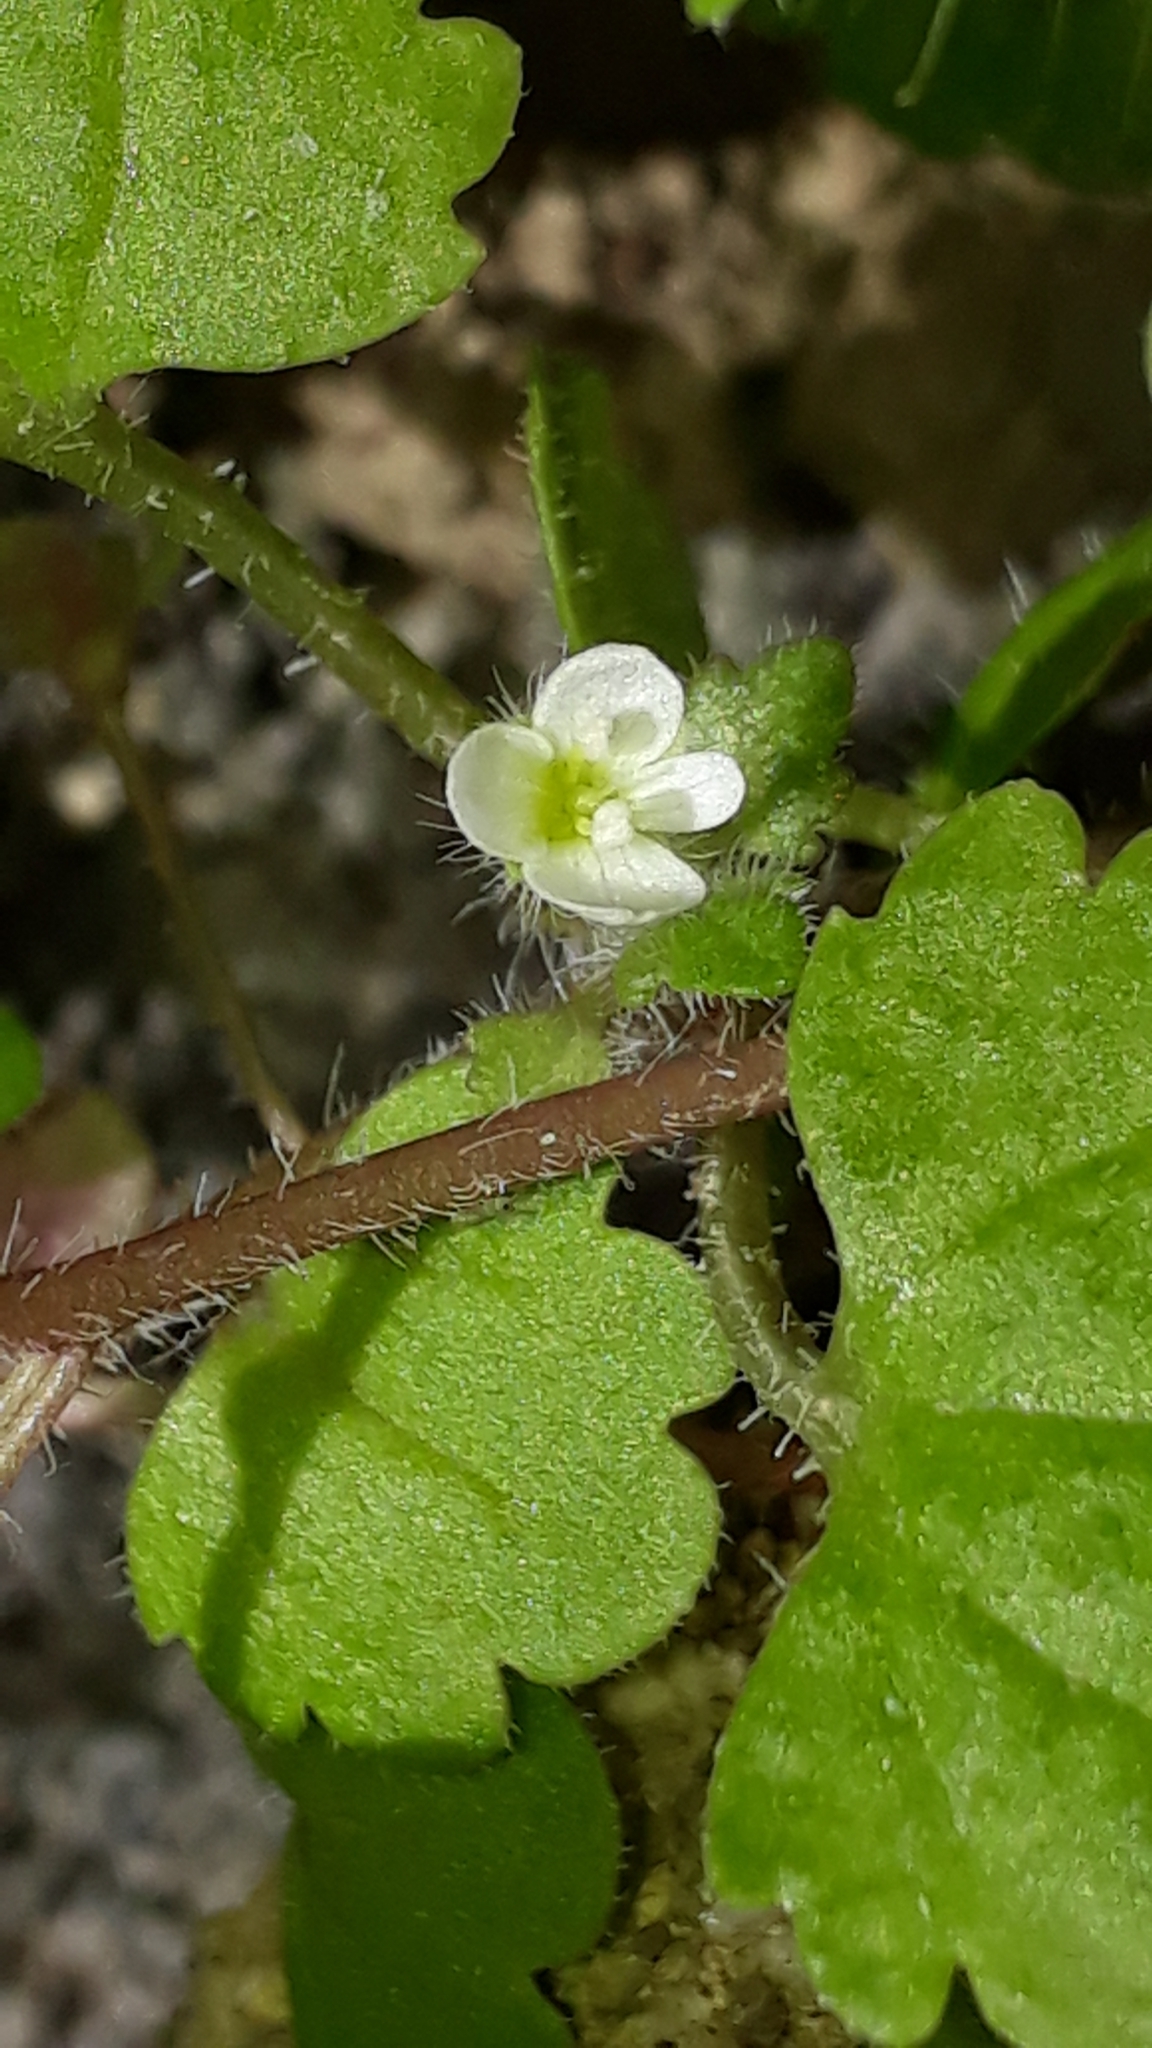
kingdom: Plantae
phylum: Tracheophyta
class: Magnoliopsida
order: Lamiales
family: Plantaginaceae
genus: Veronica
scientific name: Veronica cymbalaria
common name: Pale speedwell
